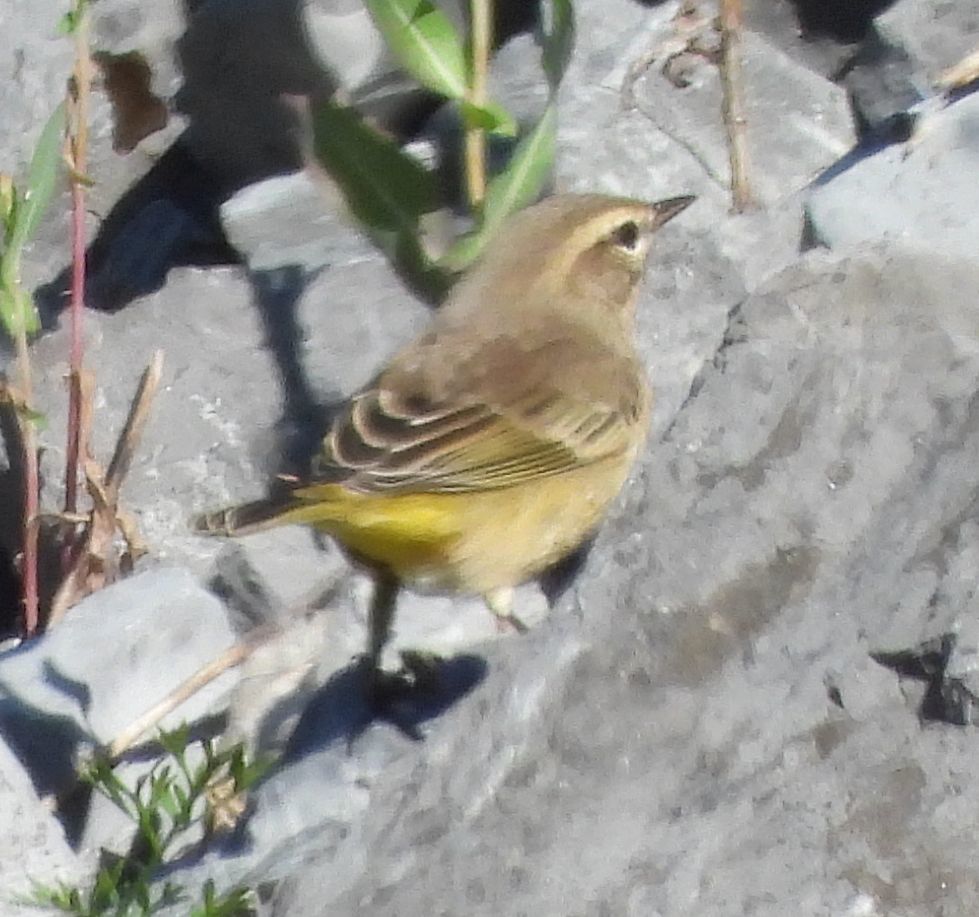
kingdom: Animalia
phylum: Chordata
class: Aves
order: Passeriformes
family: Parulidae
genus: Setophaga
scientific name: Setophaga palmarum
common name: Palm warbler
